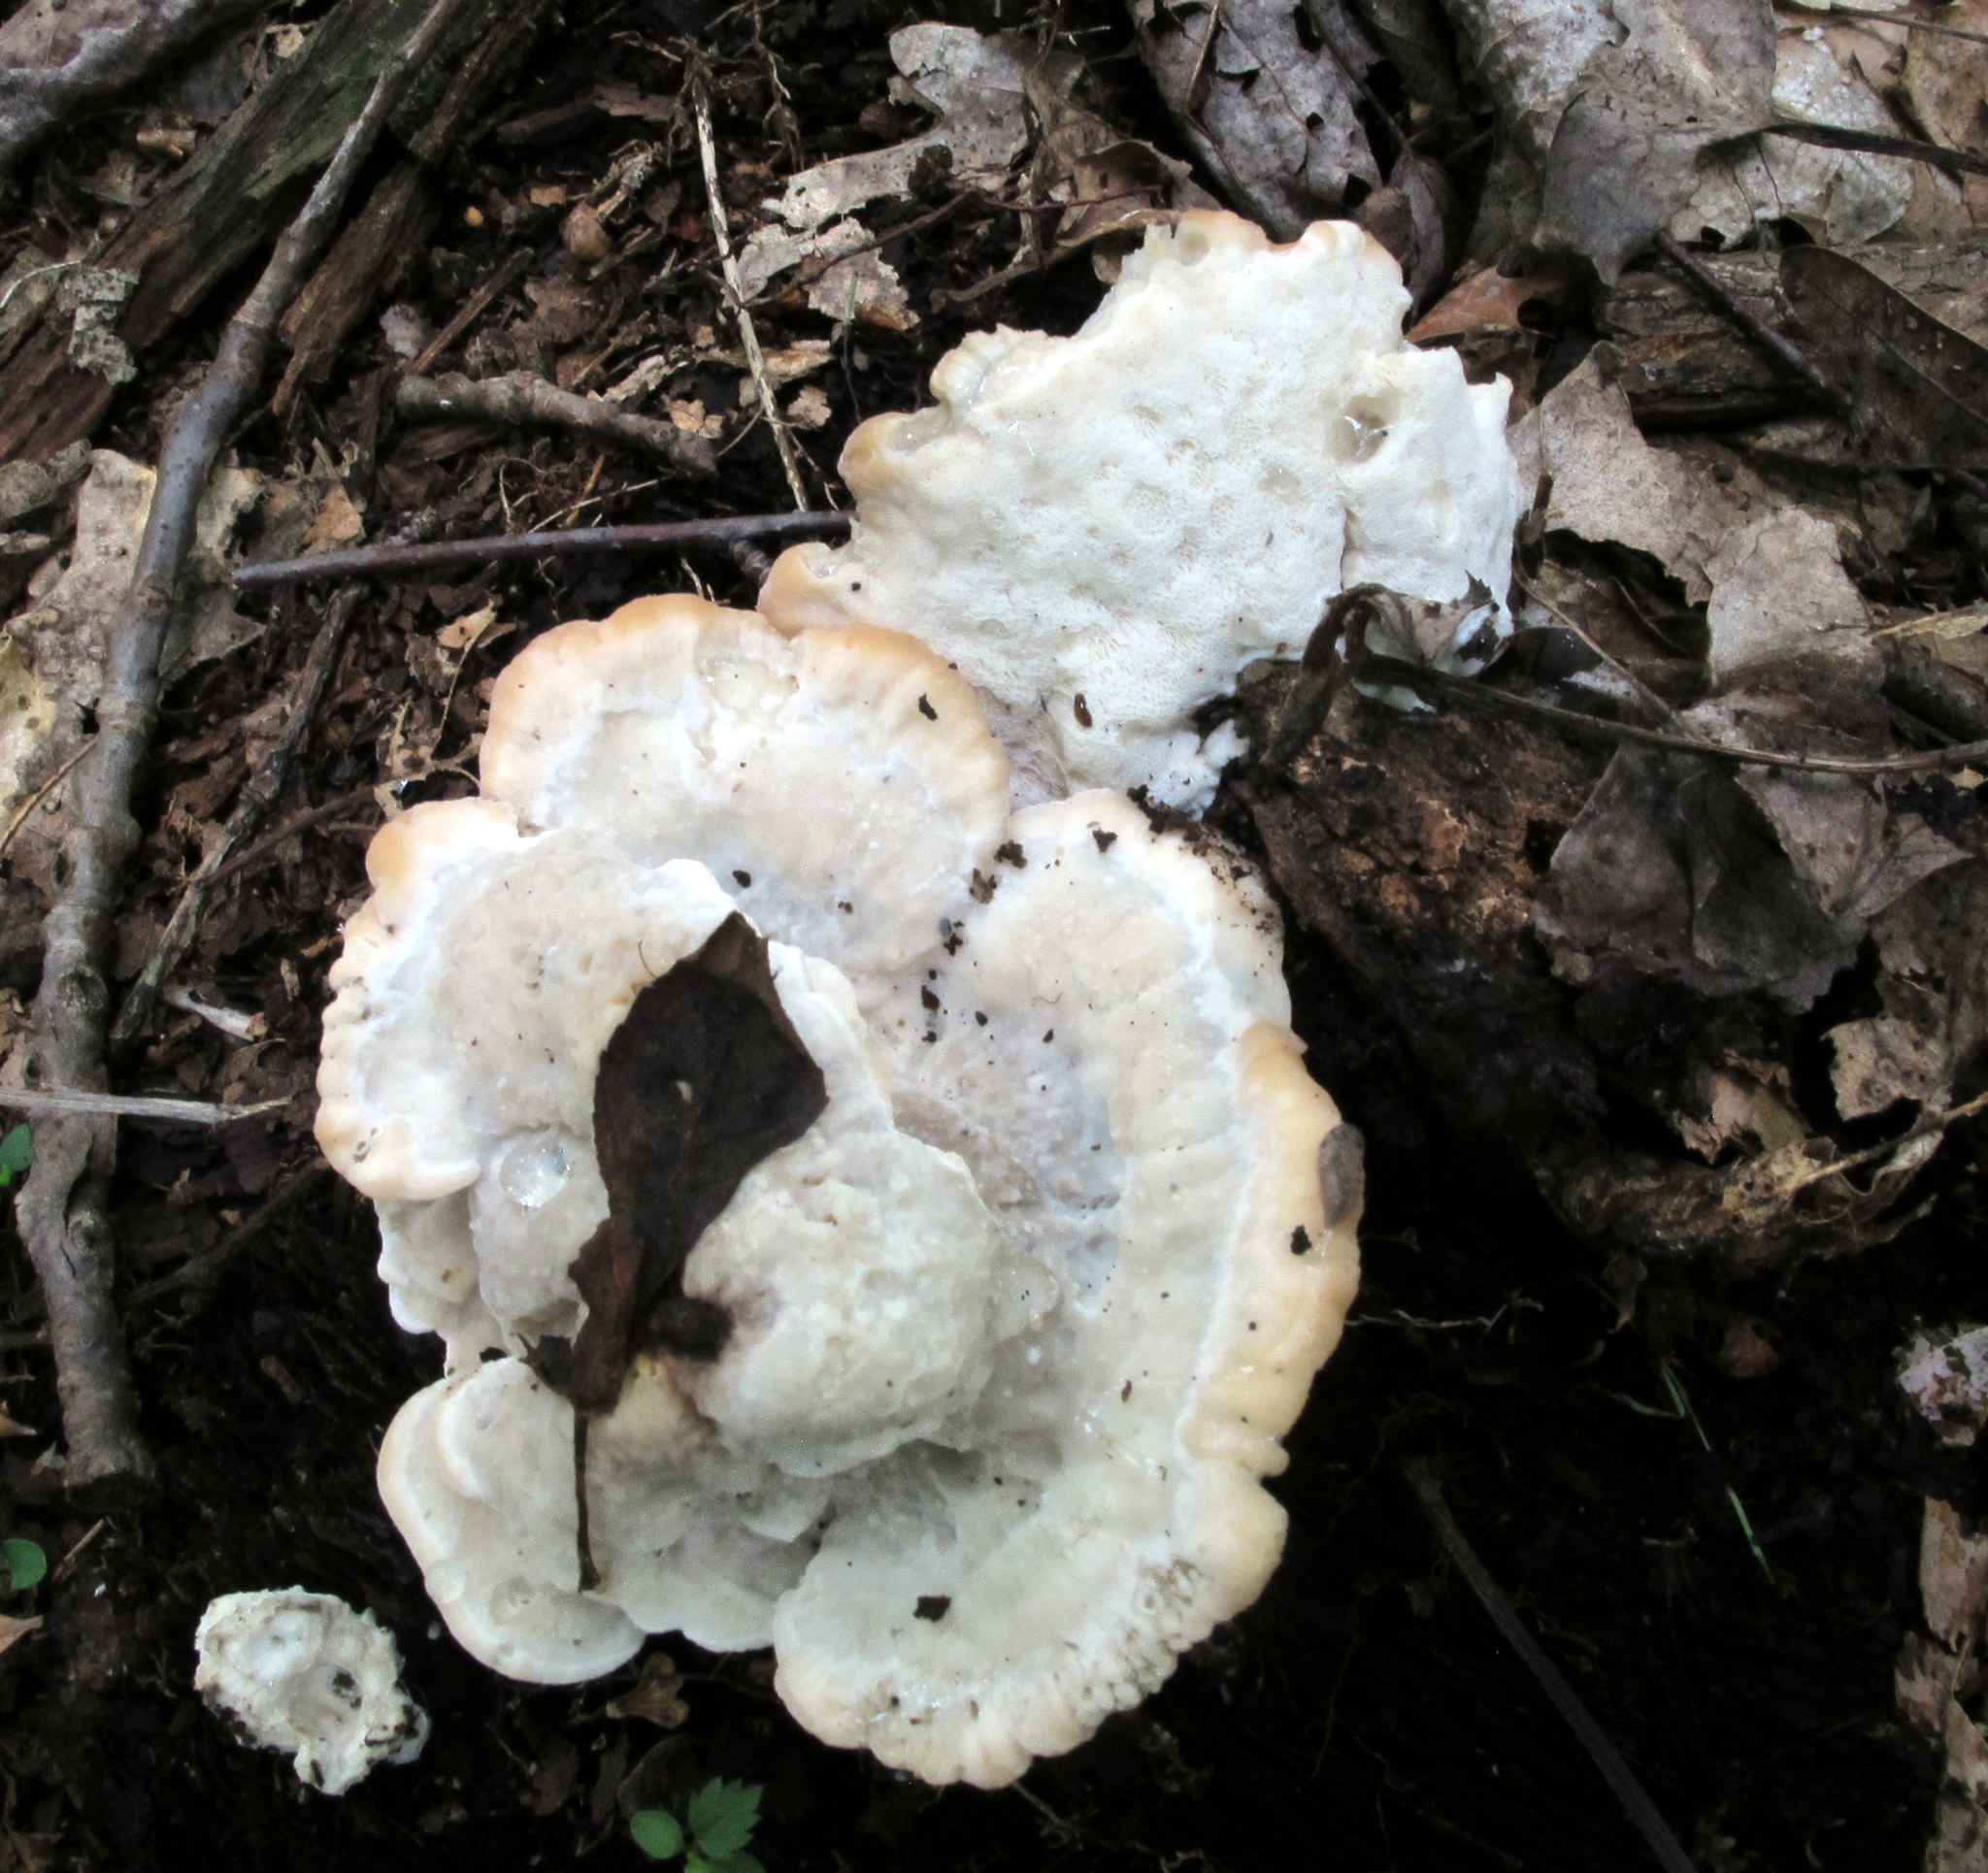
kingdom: Fungi
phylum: Basidiomycota
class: Agaricomycetes
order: Polyporales
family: Fomitopsidaceae
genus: Niveoporofomes
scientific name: Niveoporofomes spraguei
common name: Green cheese polypore
